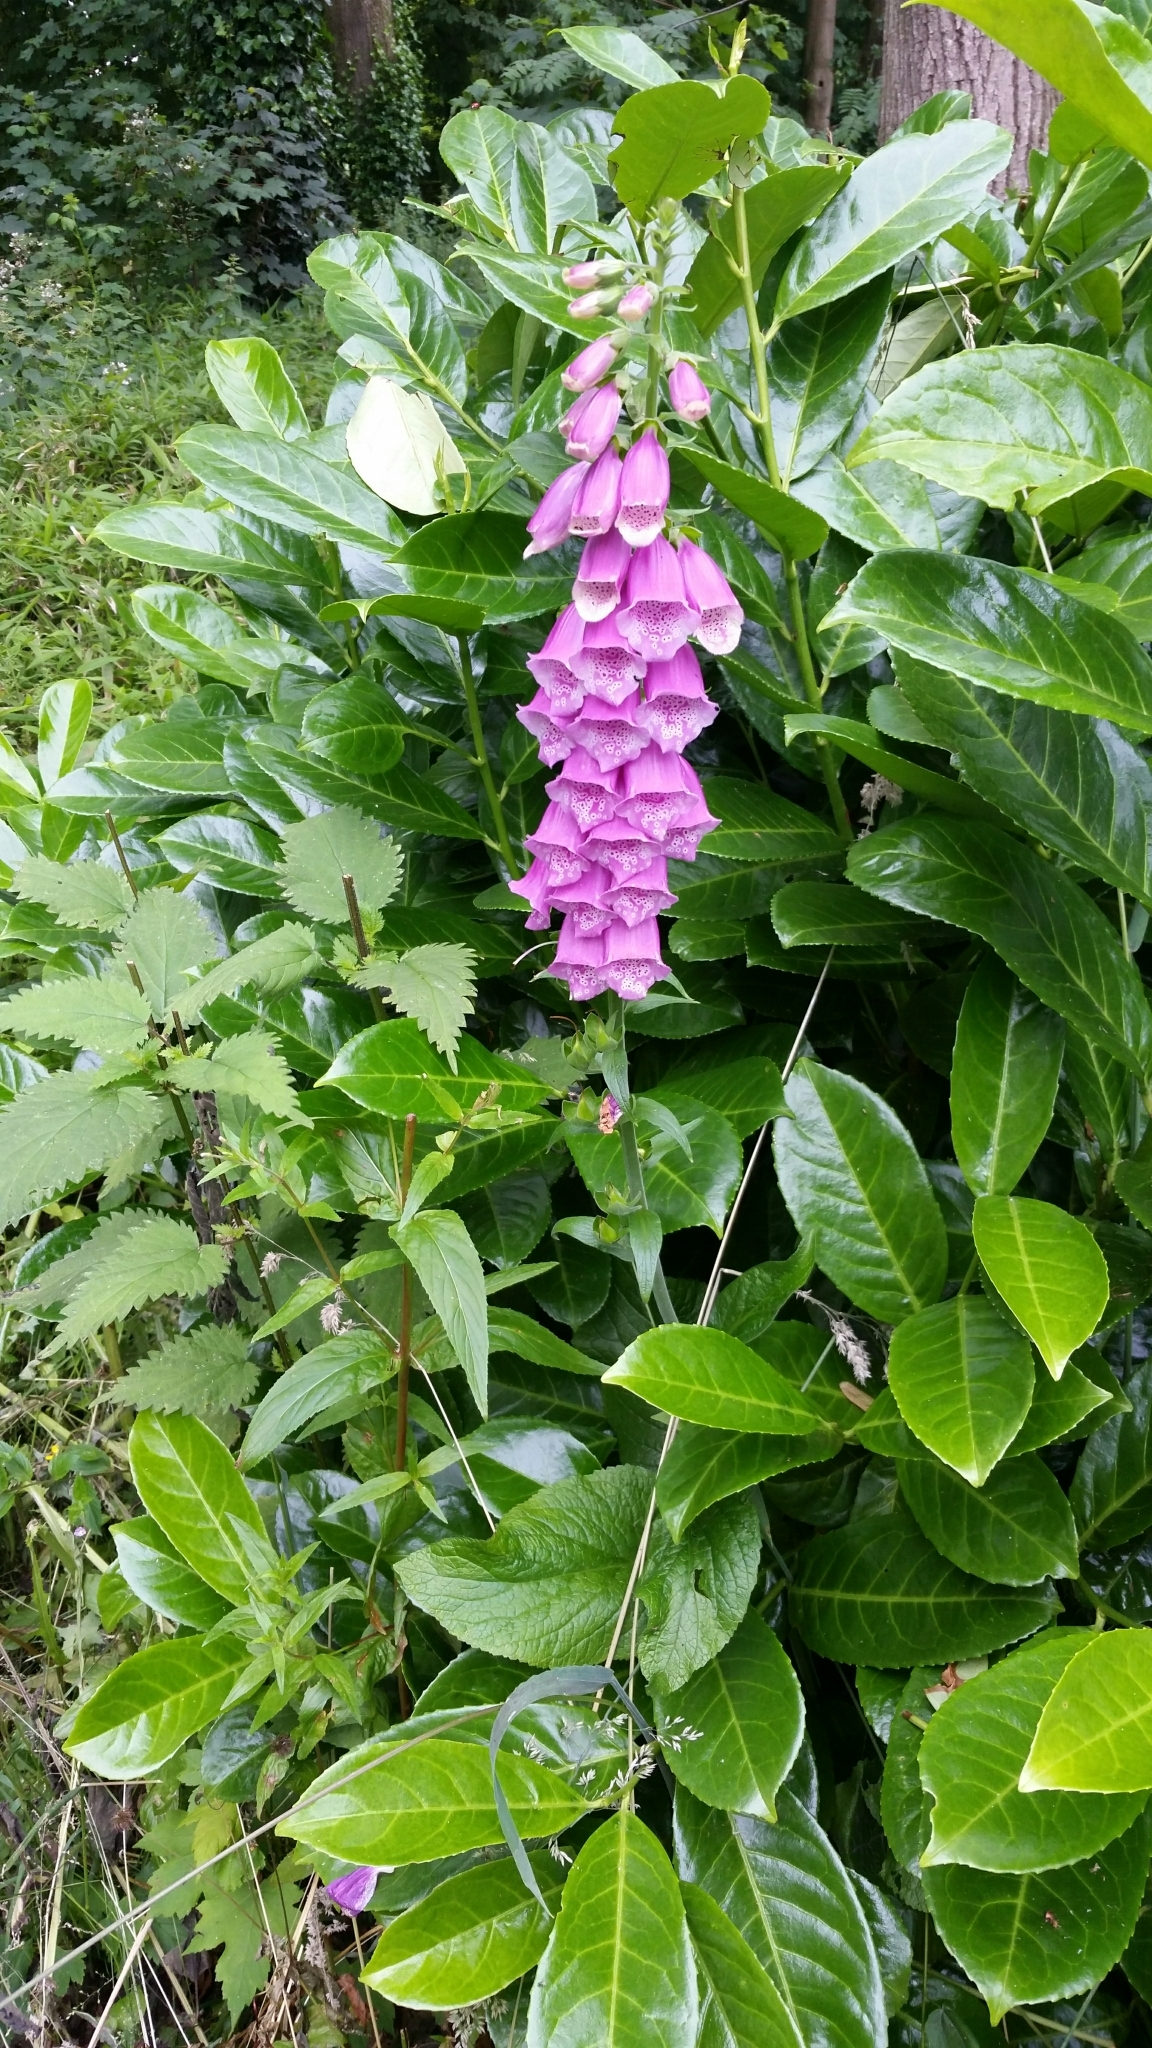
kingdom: Plantae
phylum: Tracheophyta
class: Magnoliopsida
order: Lamiales
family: Plantaginaceae
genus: Digitalis
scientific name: Digitalis purpurea
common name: Foxglove
